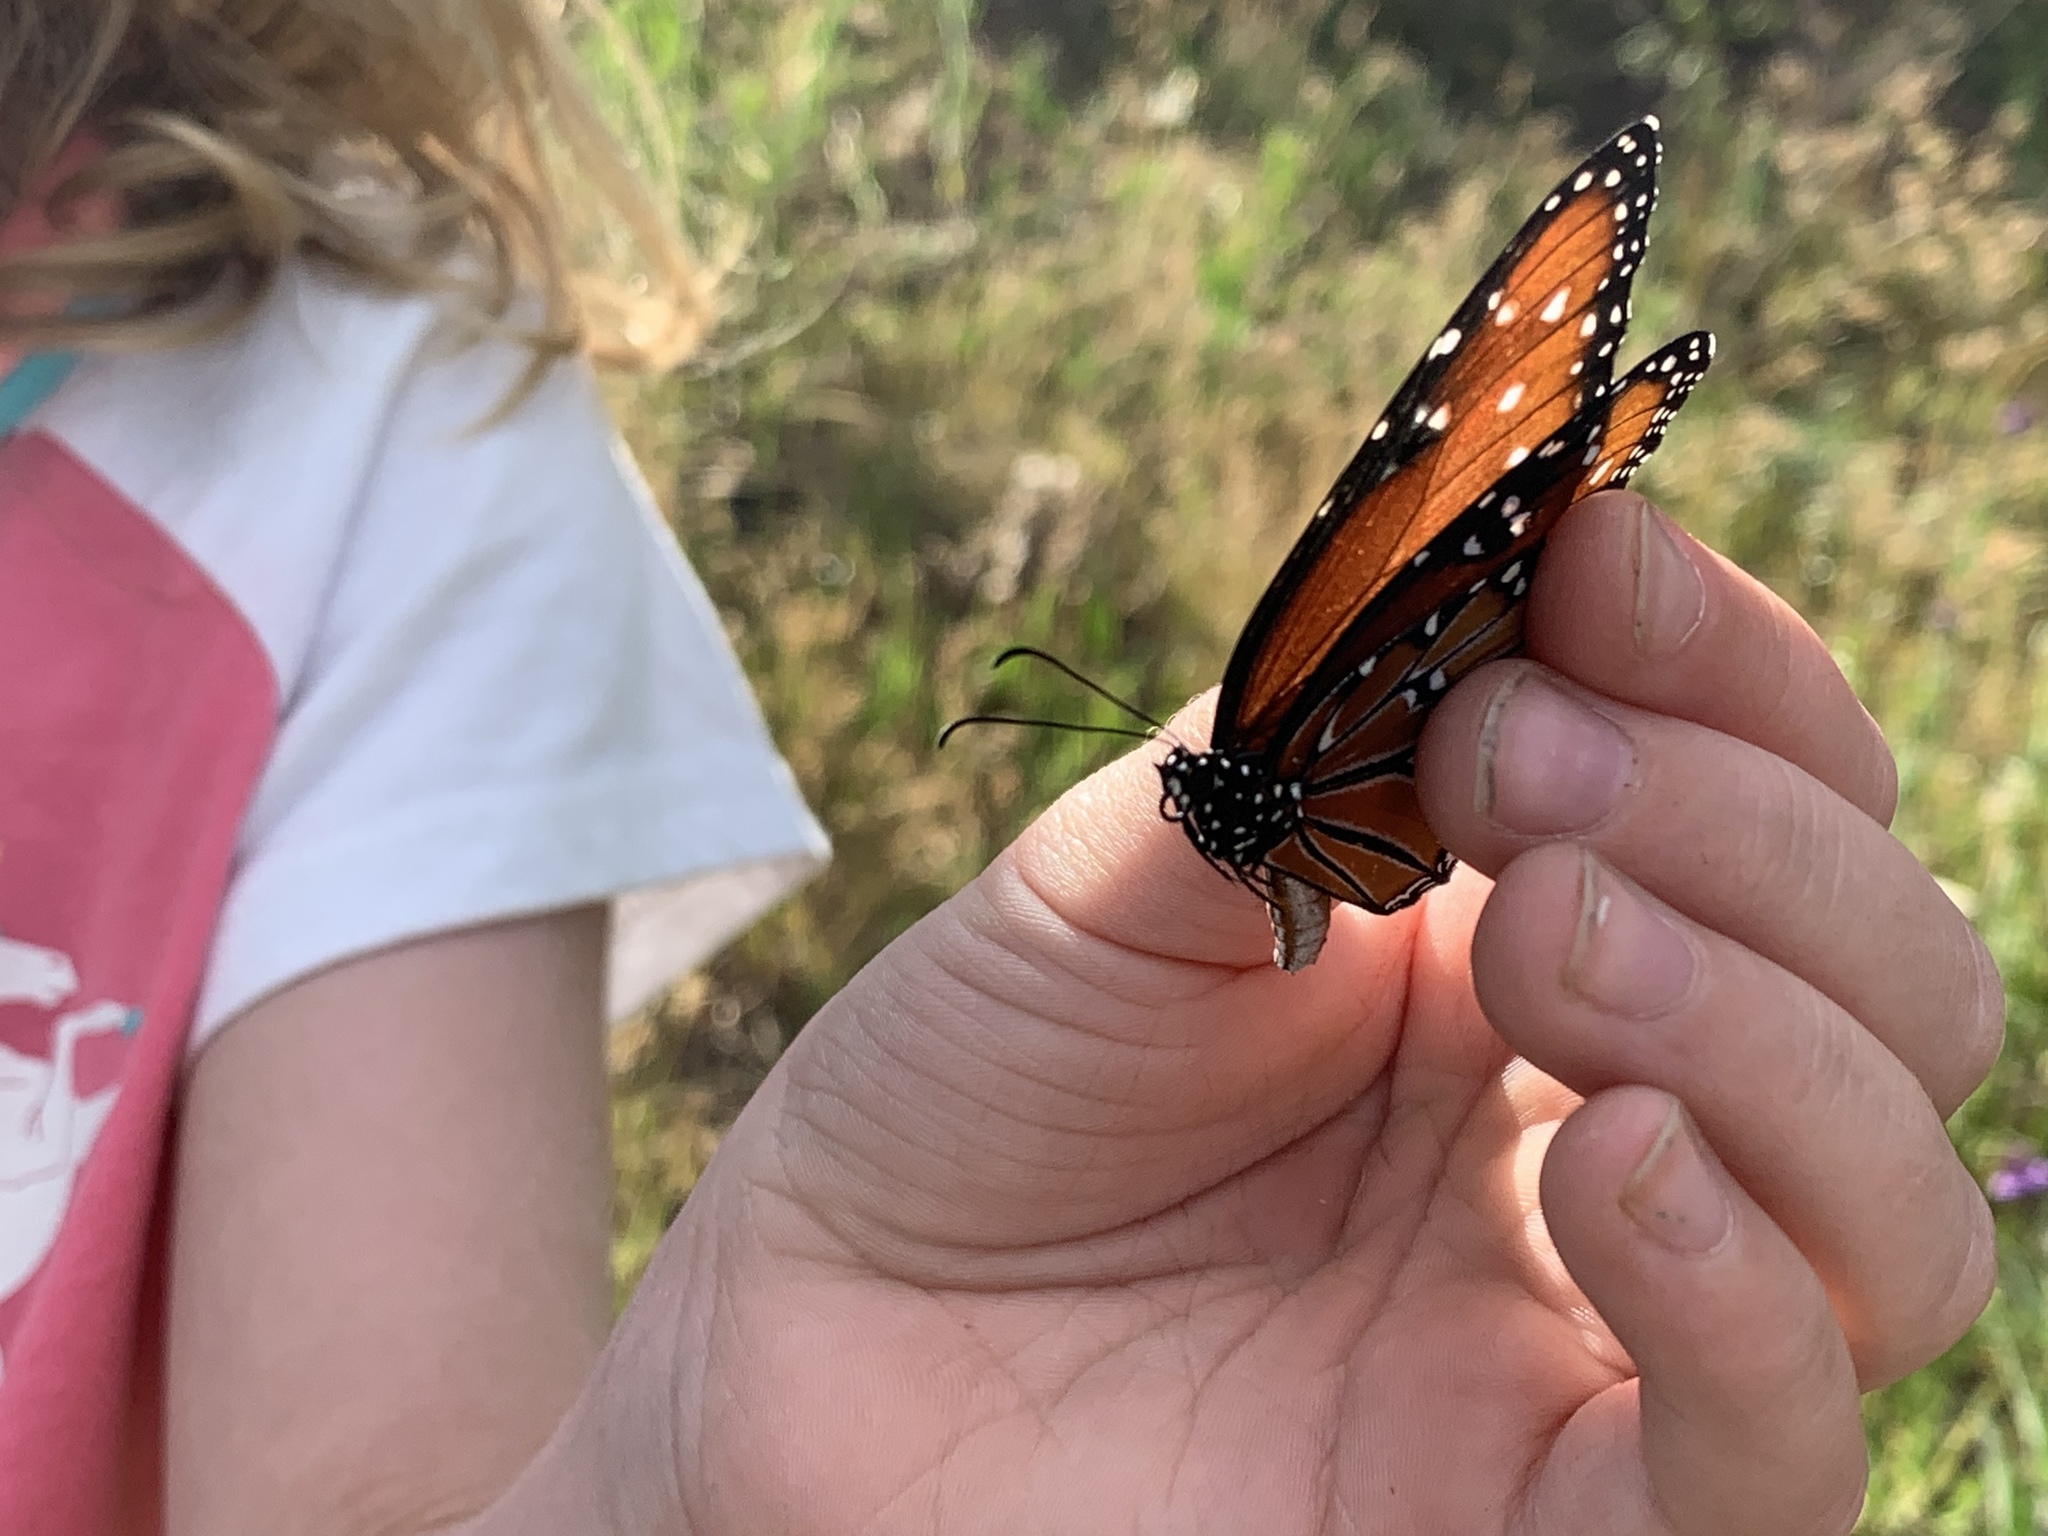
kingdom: Animalia
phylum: Arthropoda
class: Insecta
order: Lepidoptera
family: Nymphalidae
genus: Danaus
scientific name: Danaus gilippus
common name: Queen
